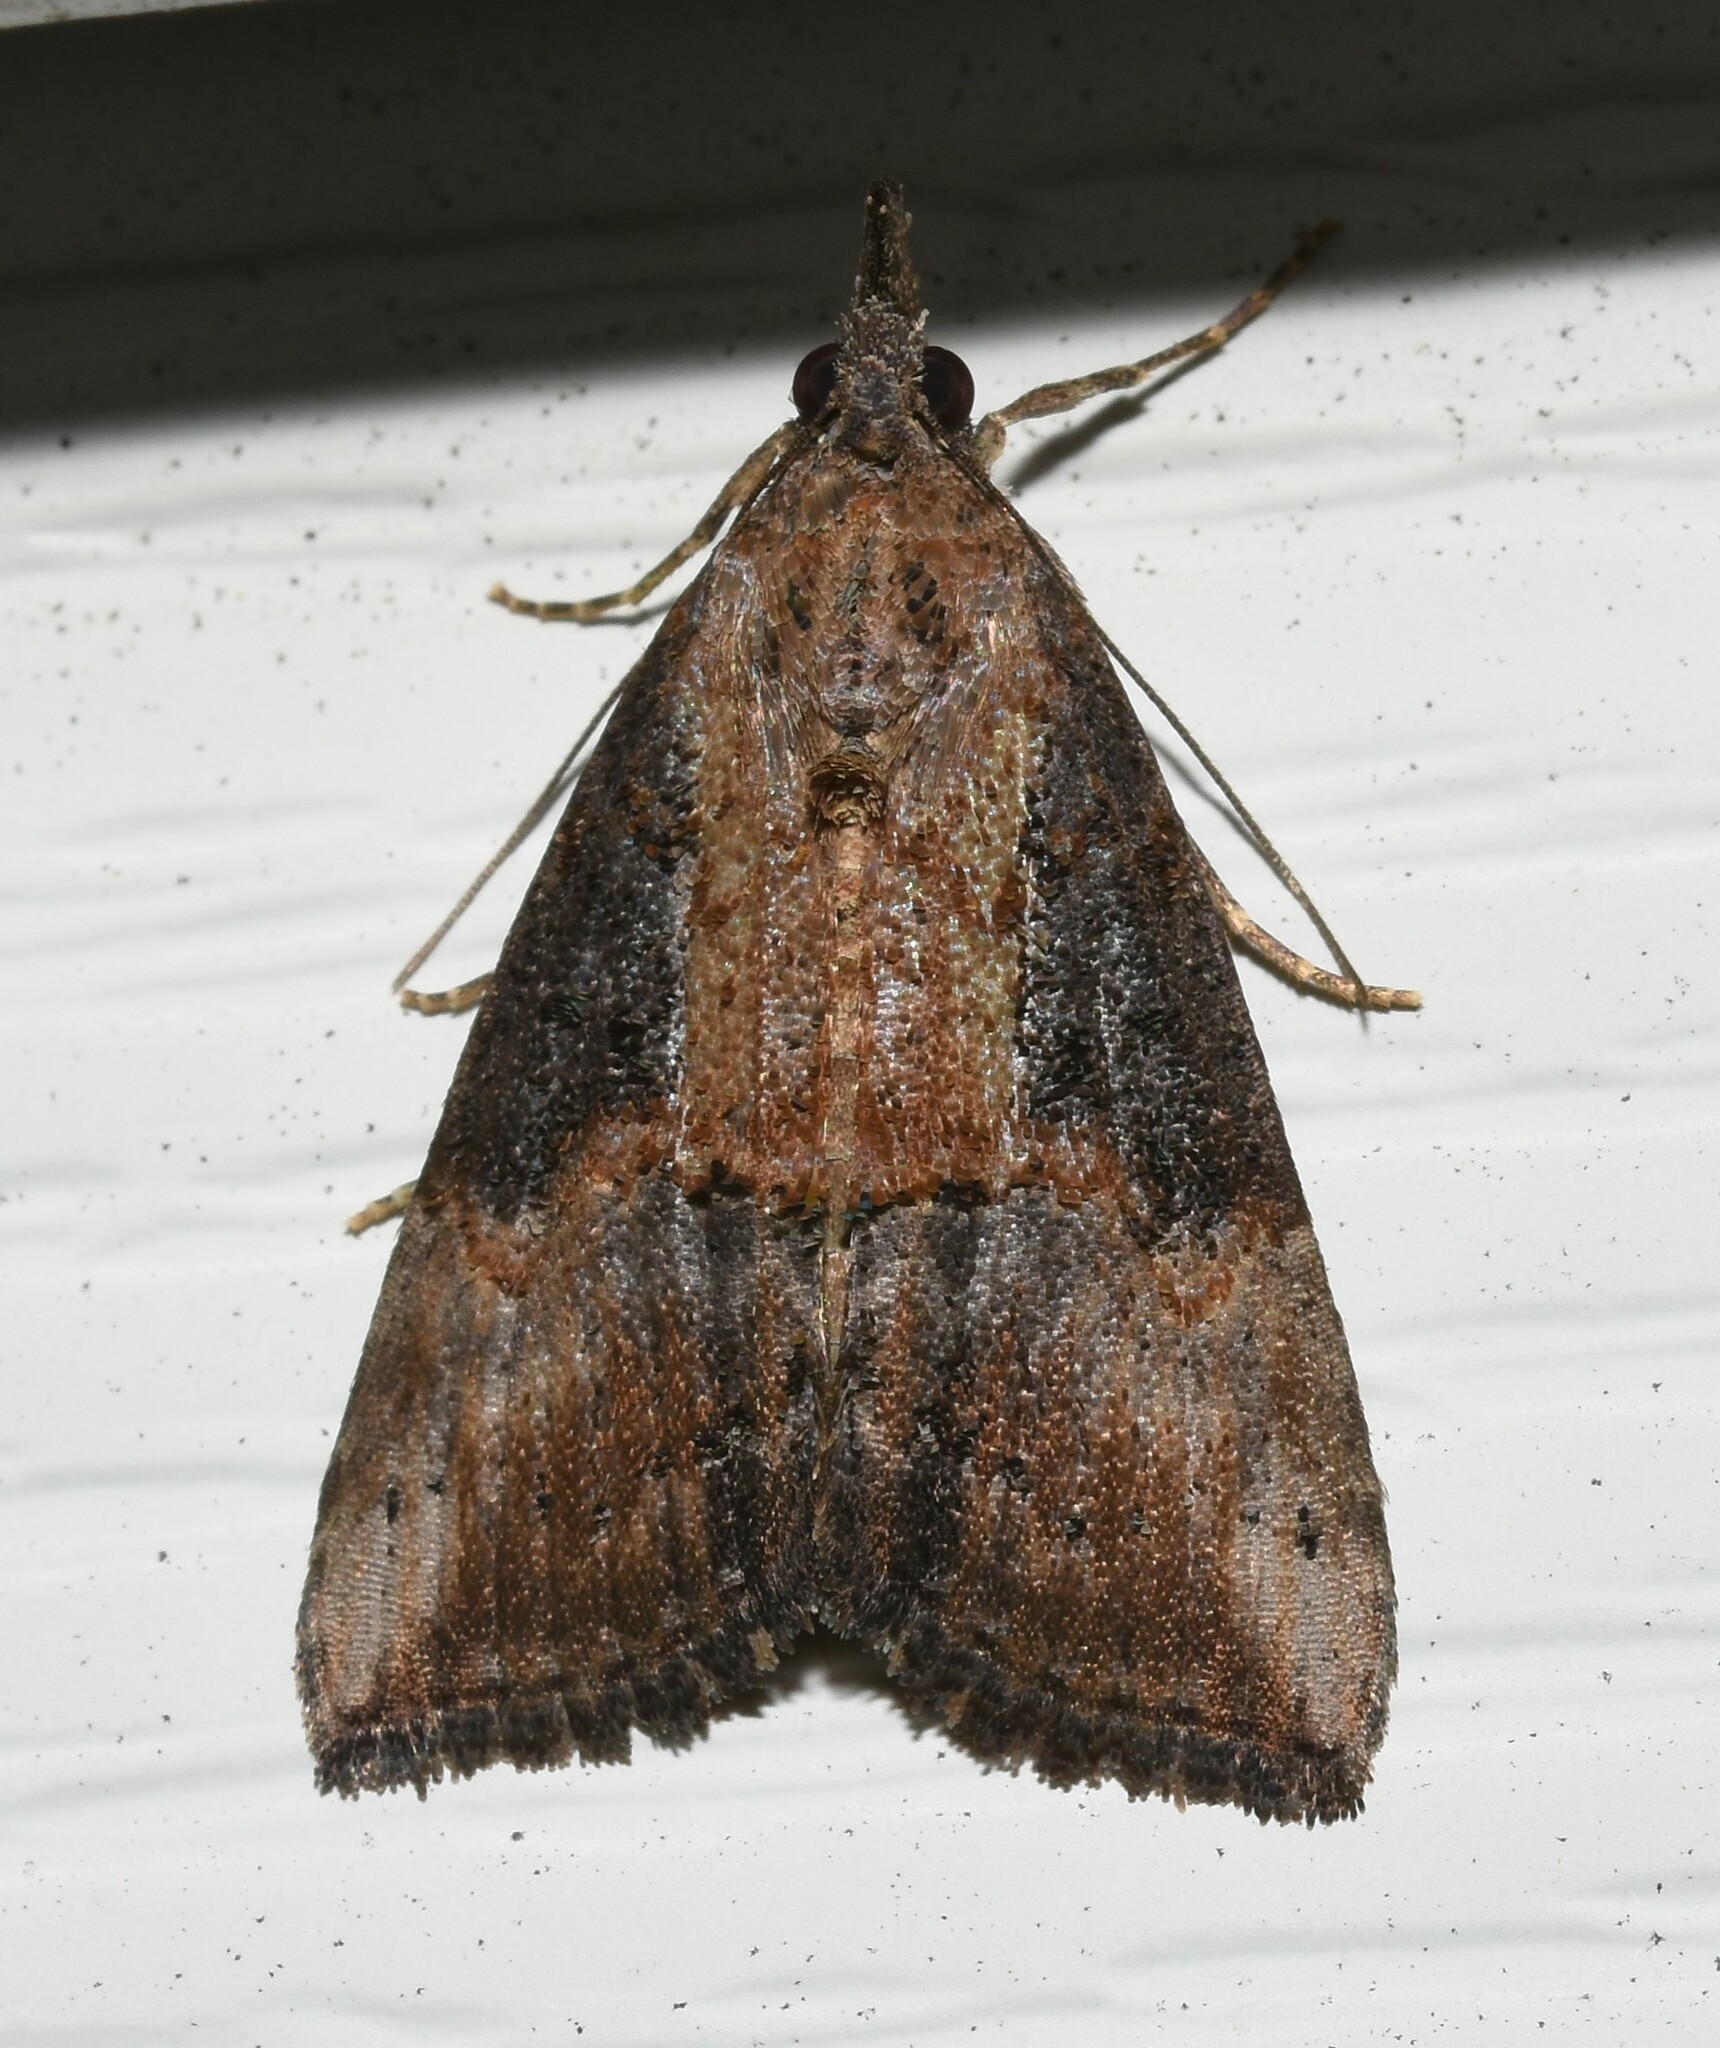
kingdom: Animalia
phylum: Arthropoda
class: Insecta
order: Lepidoptera
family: Erebidae
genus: Hypena
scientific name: Hypena scabra
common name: Green cloverworm
